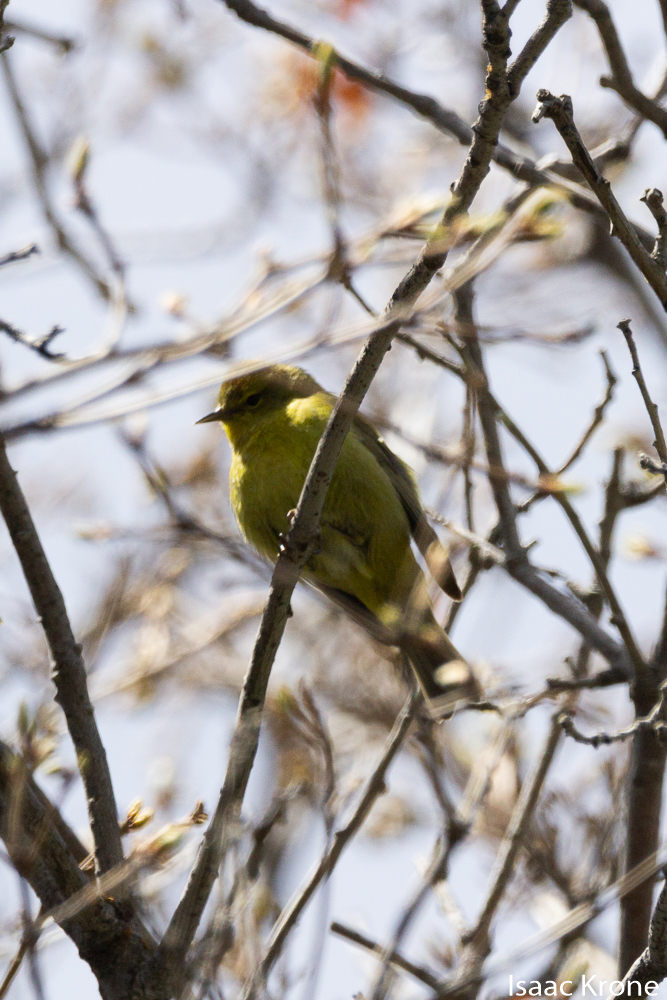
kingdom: Animalia
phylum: Chordata
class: Aves
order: Passeriformes
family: Parulidae
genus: Leiothlypis
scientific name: Leiothlypis celata
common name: Orange-crowned warbler
